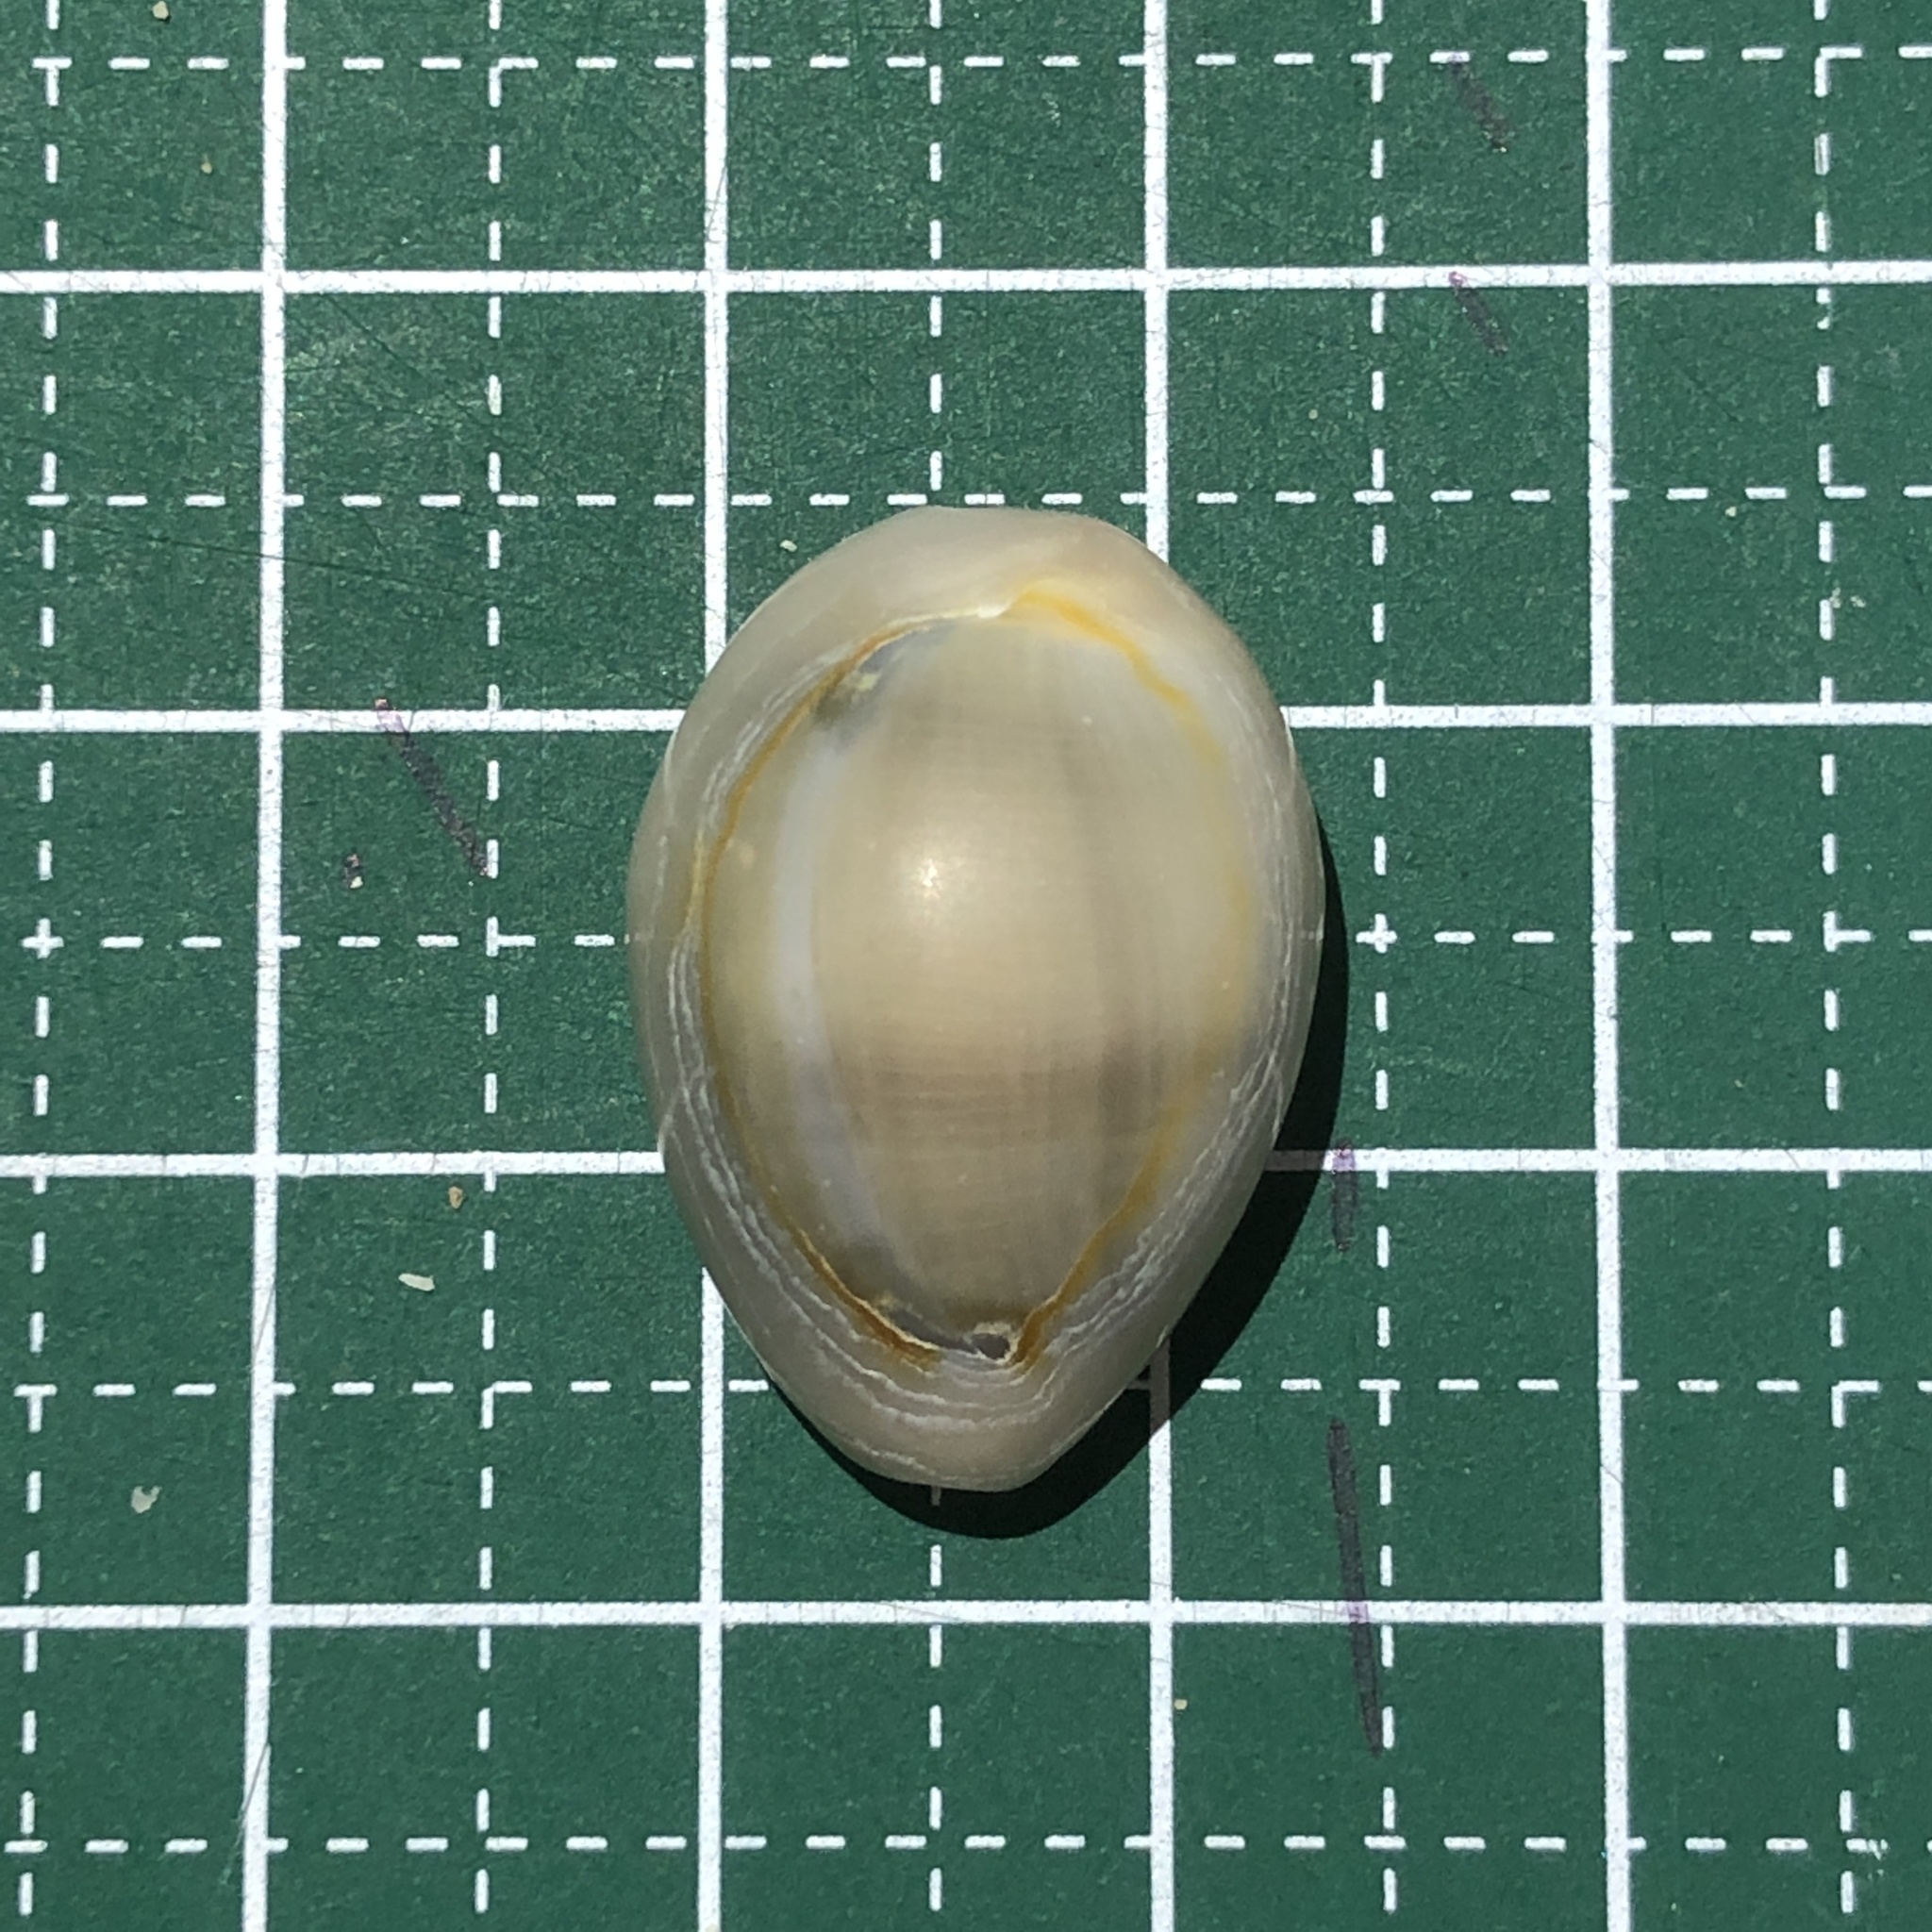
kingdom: Animalia
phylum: Mollusca
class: Gastropoda
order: Littorinimorpha
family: Cypraeidae
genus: Monetaria
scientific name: Monetaria annulus
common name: Ring cowrie
